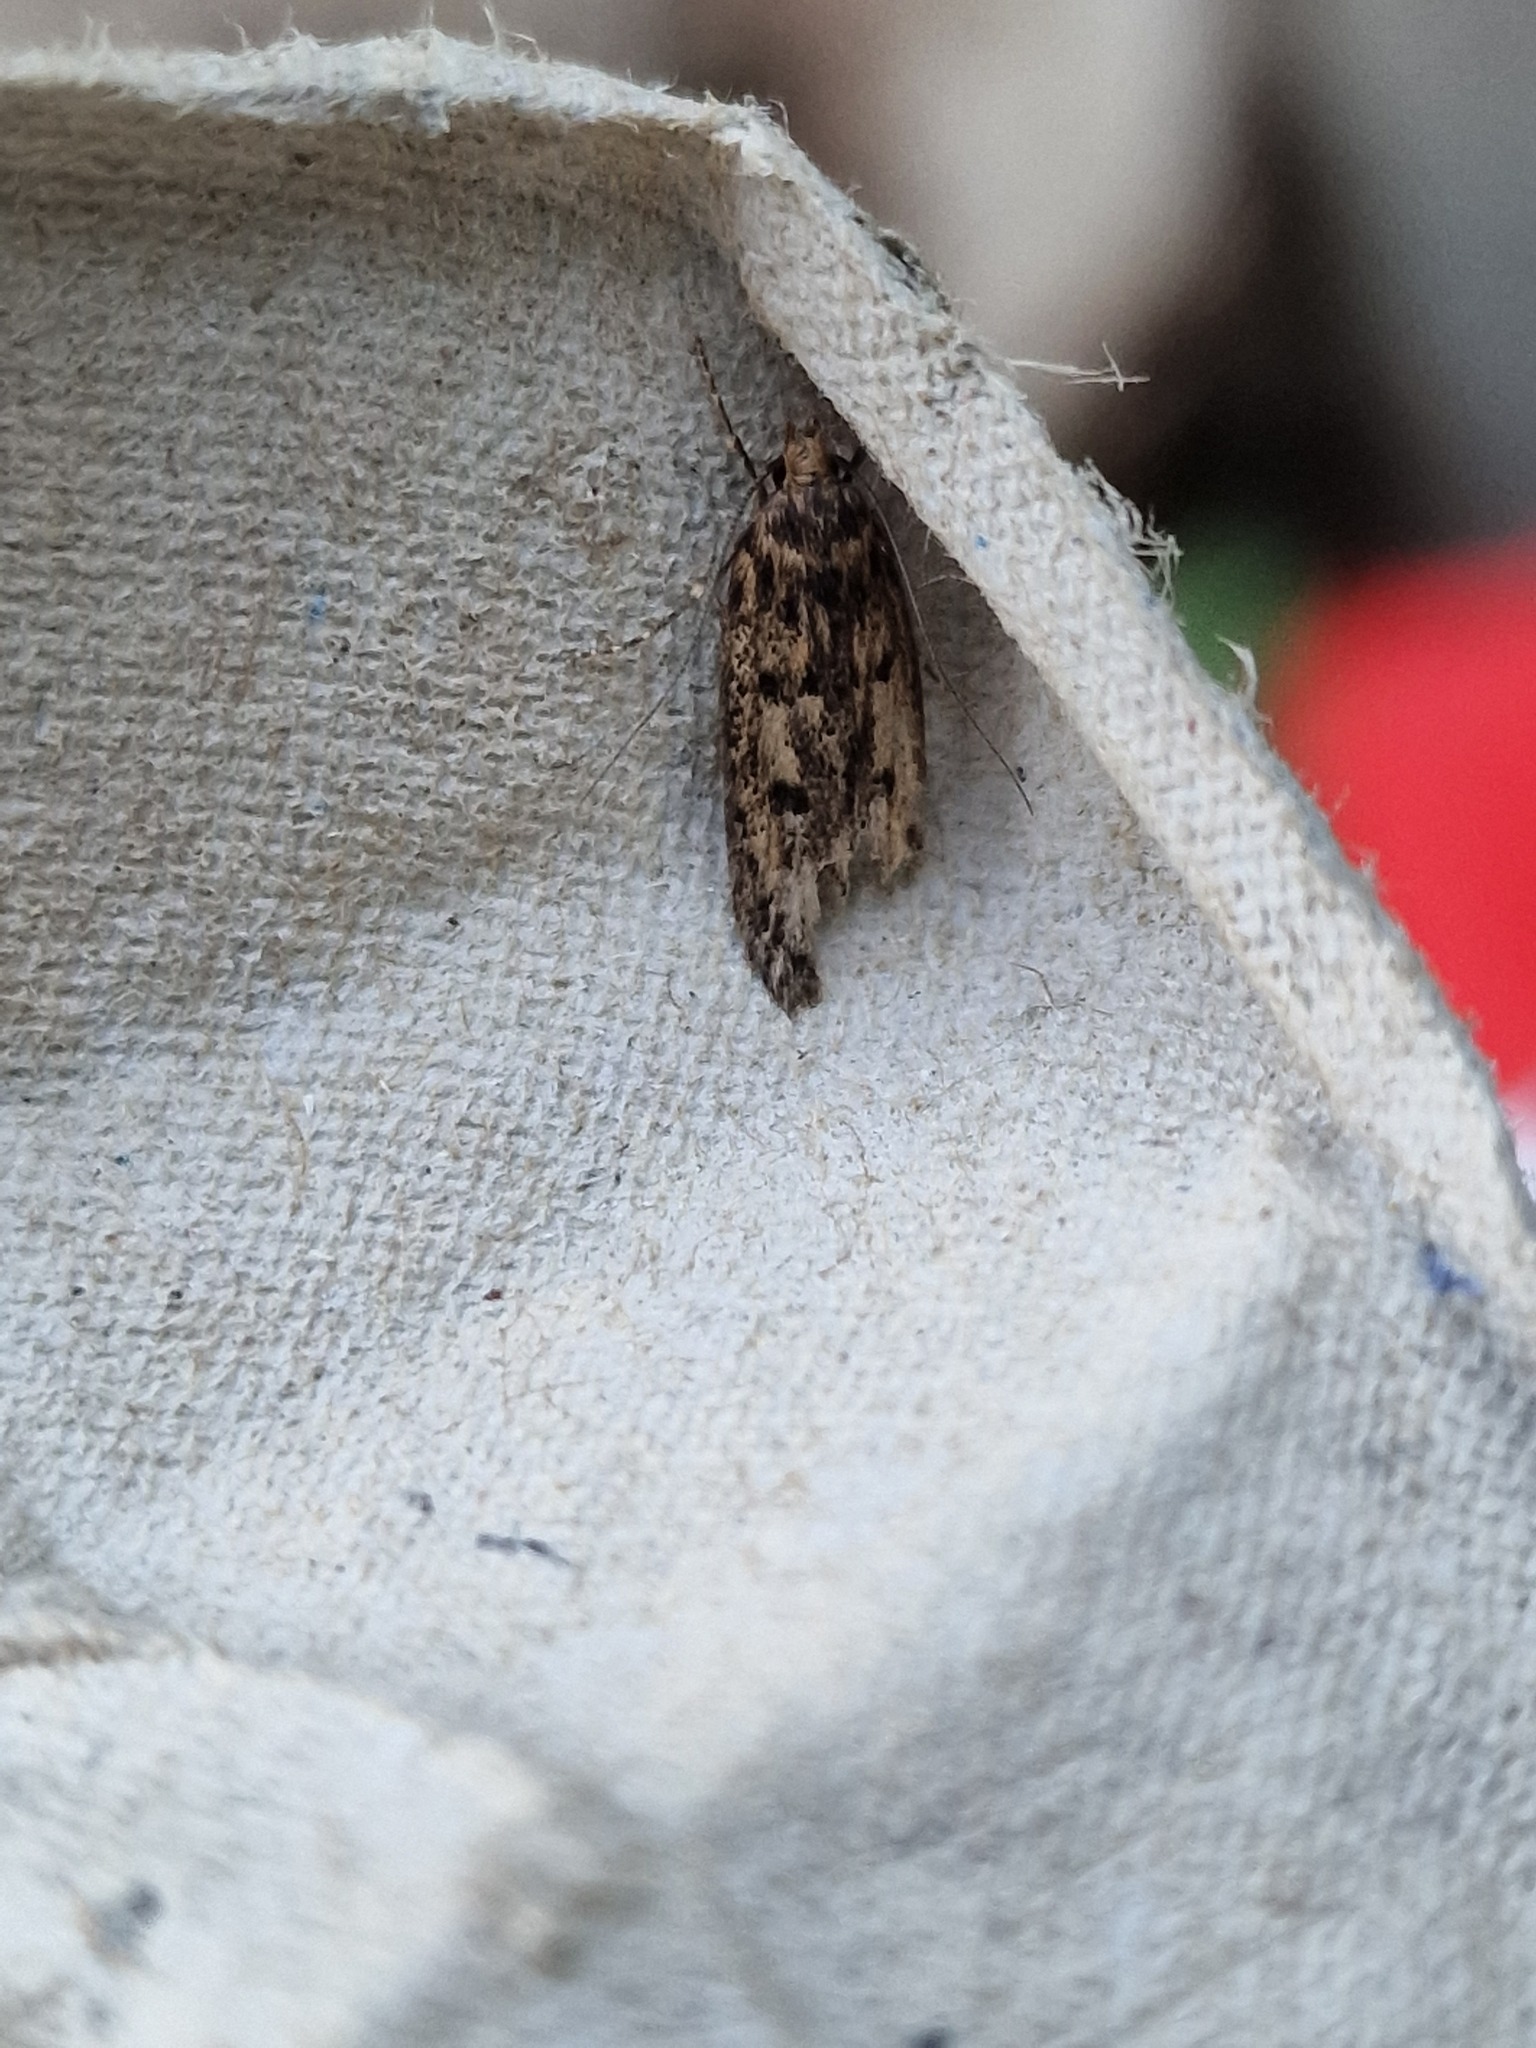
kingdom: Animalia
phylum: Arthropoda
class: Insecta
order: Lepidoptera
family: Oecophoridae
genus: Hofmannophila
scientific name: Hofmannophila pseudospretella
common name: Brown house moth
